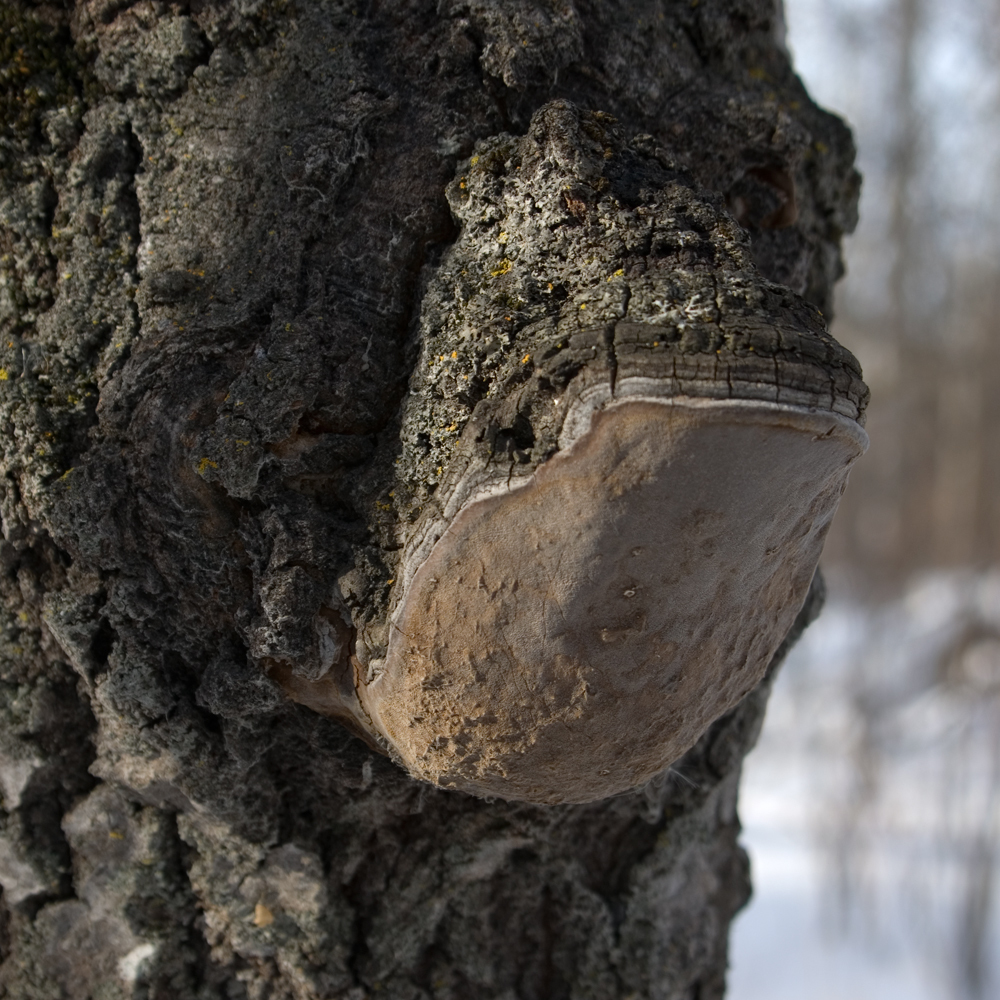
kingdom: Fungi
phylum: Basidiomycota
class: Agaricomycetes
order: Hymenochaetales
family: Hymenochaetaceae
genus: Phellinus
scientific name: Phellinus tremulae
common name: Aspen bracket
